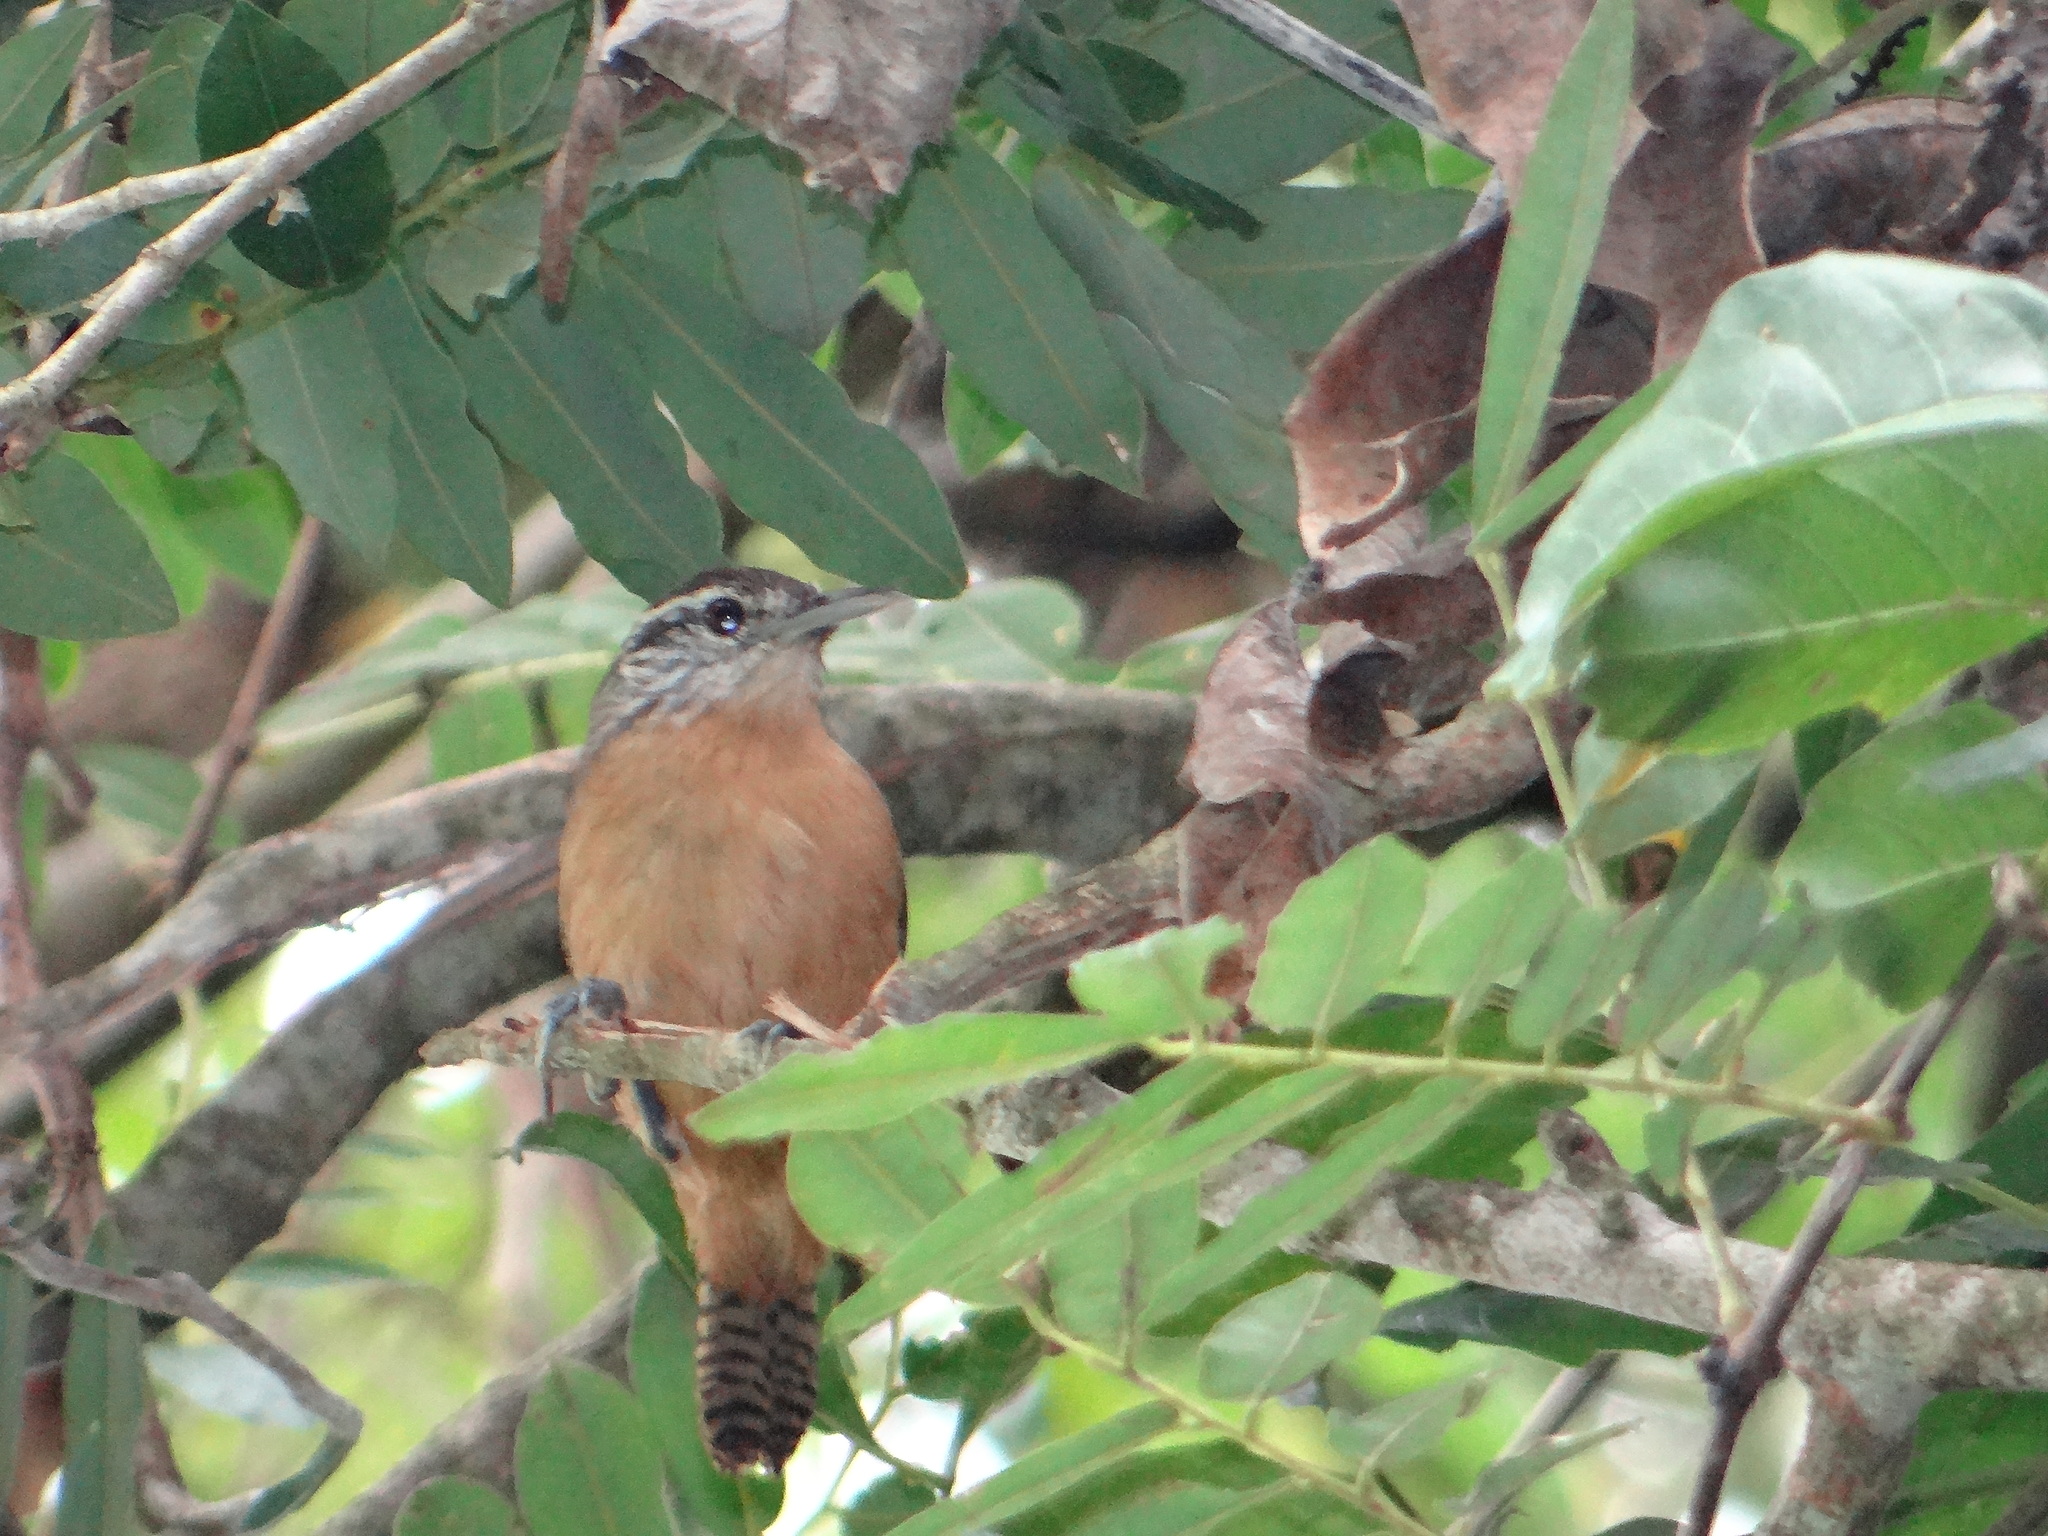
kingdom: Animalia
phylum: Chordata
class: Aves
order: Passeriformes
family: Troglodytidae
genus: Cantorchilus
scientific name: Cantorchilus guarayanus
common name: Fawn-breasted wren
